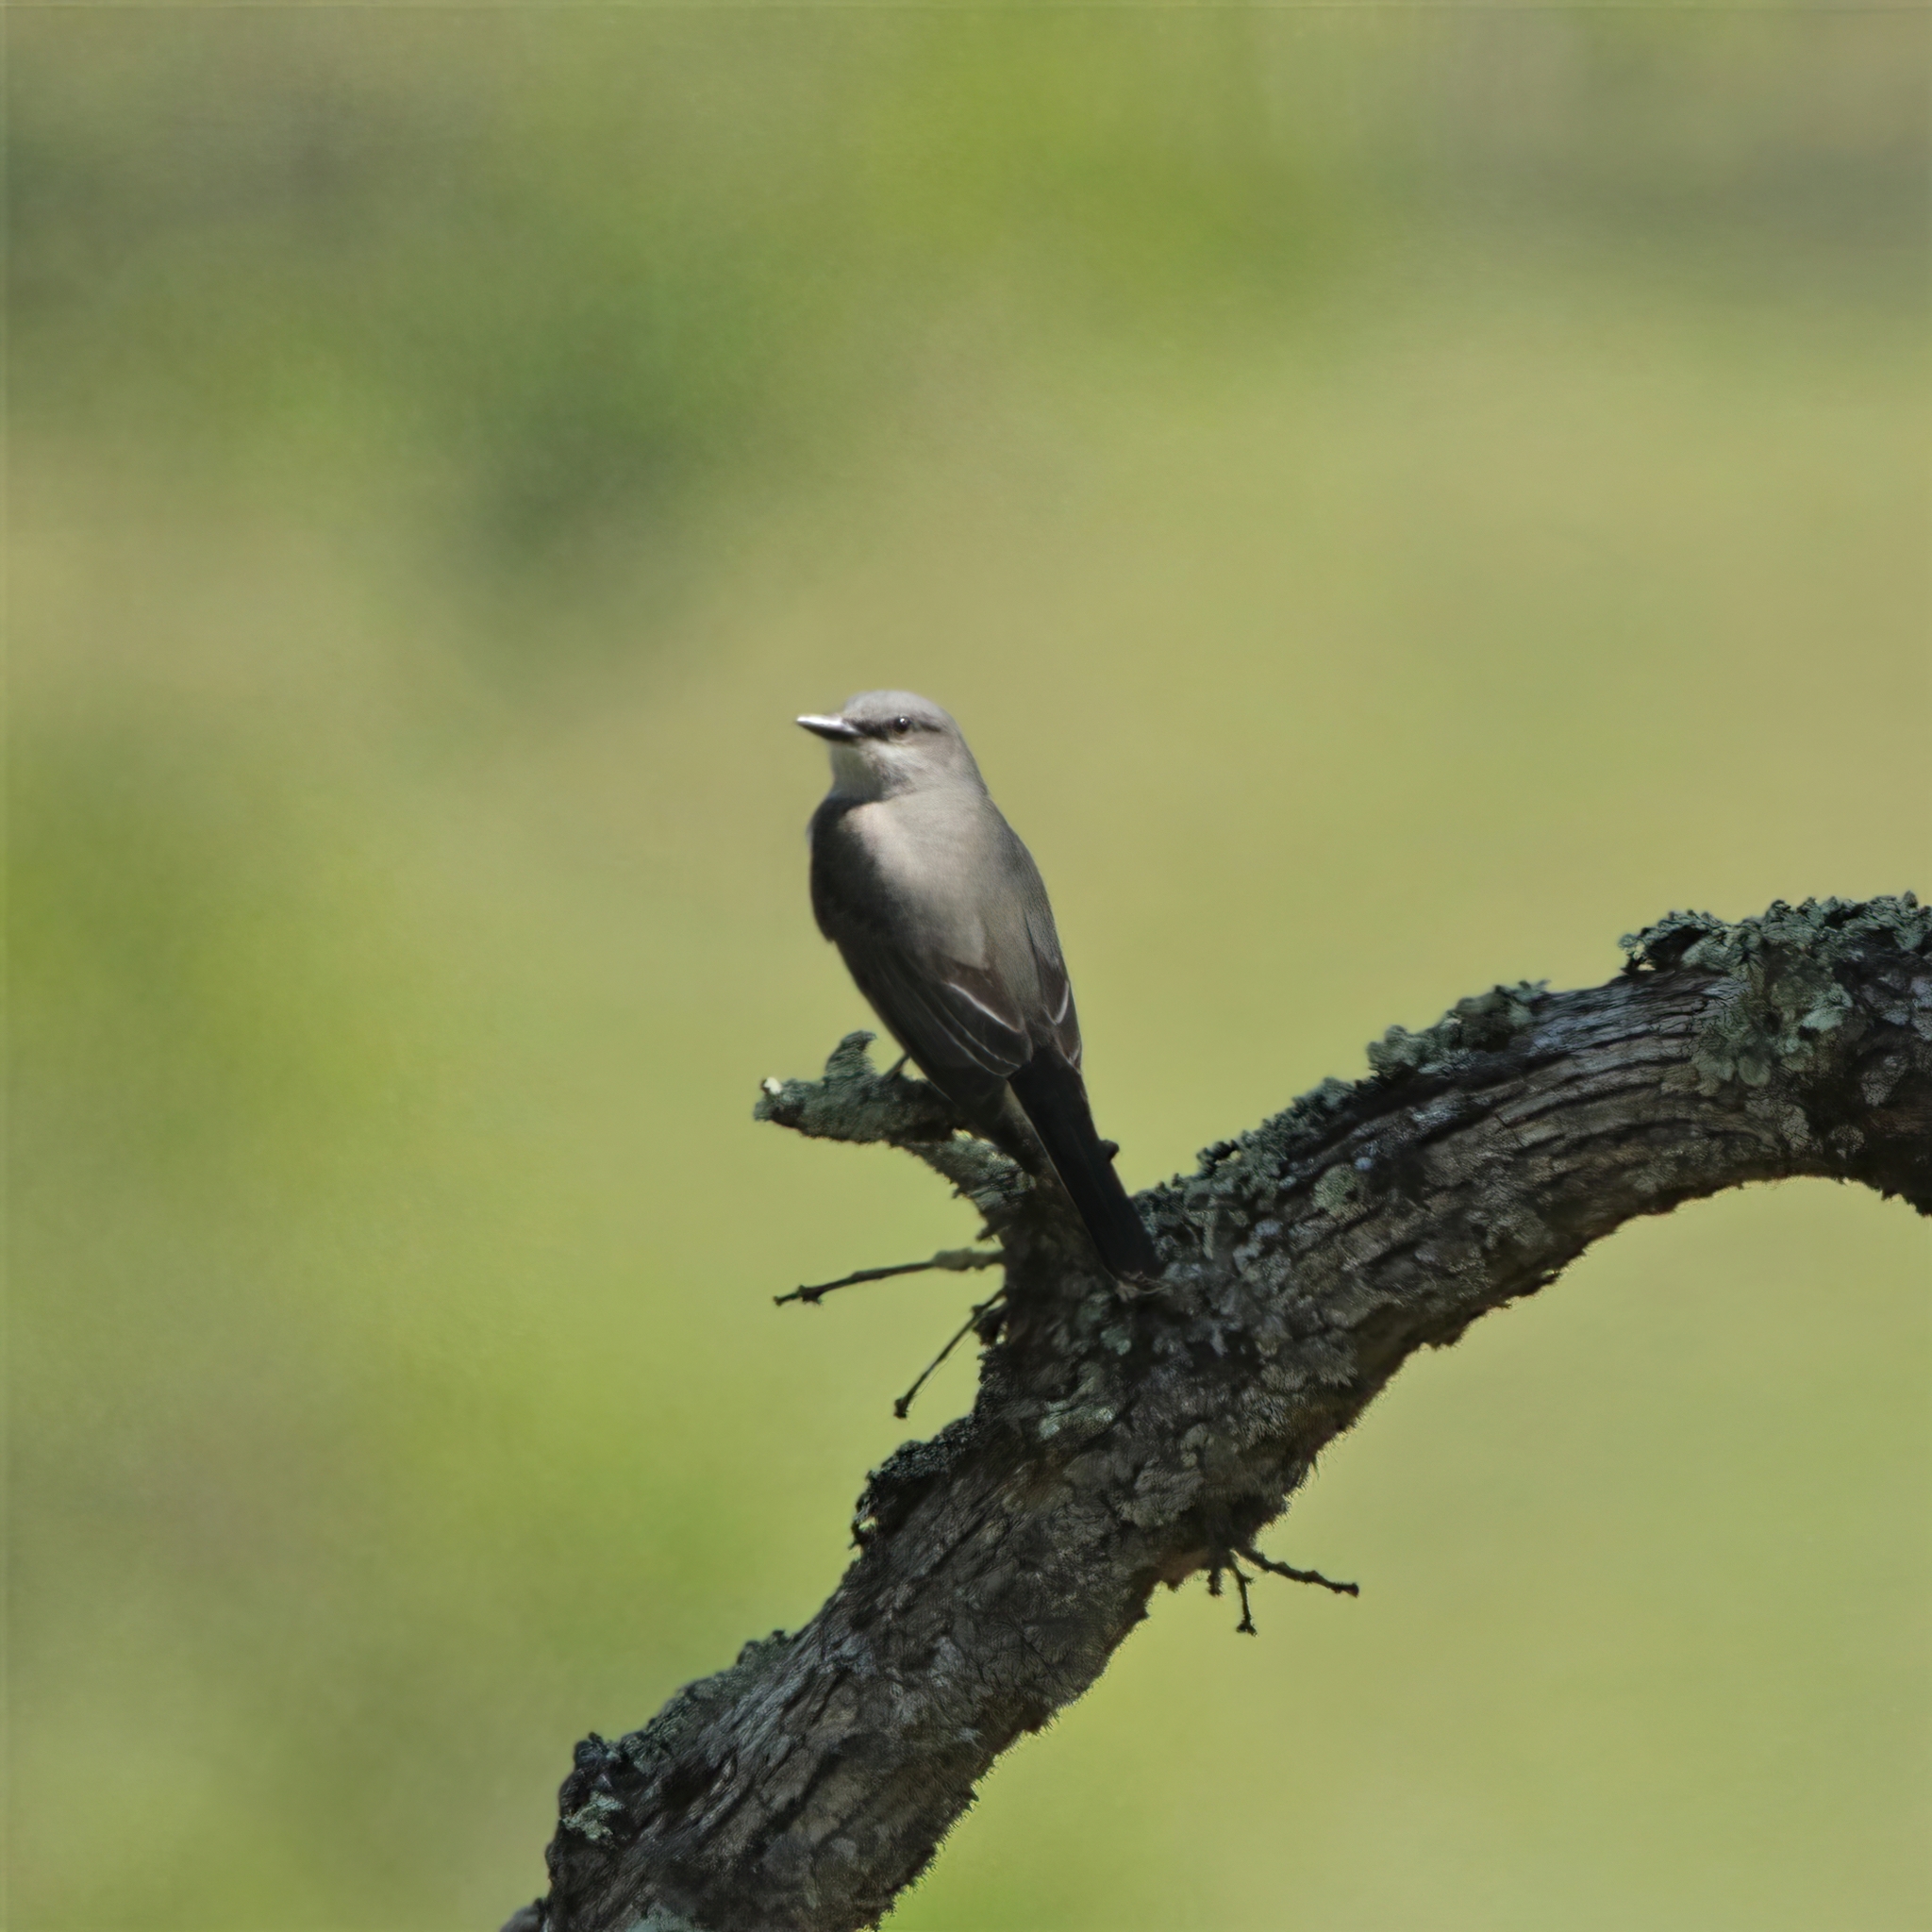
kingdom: Animalia
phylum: Chordata
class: Aves
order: Passeriformes
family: Tyrannidae
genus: Tyrannus
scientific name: Tyrannus verticalis
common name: Western kingbird
